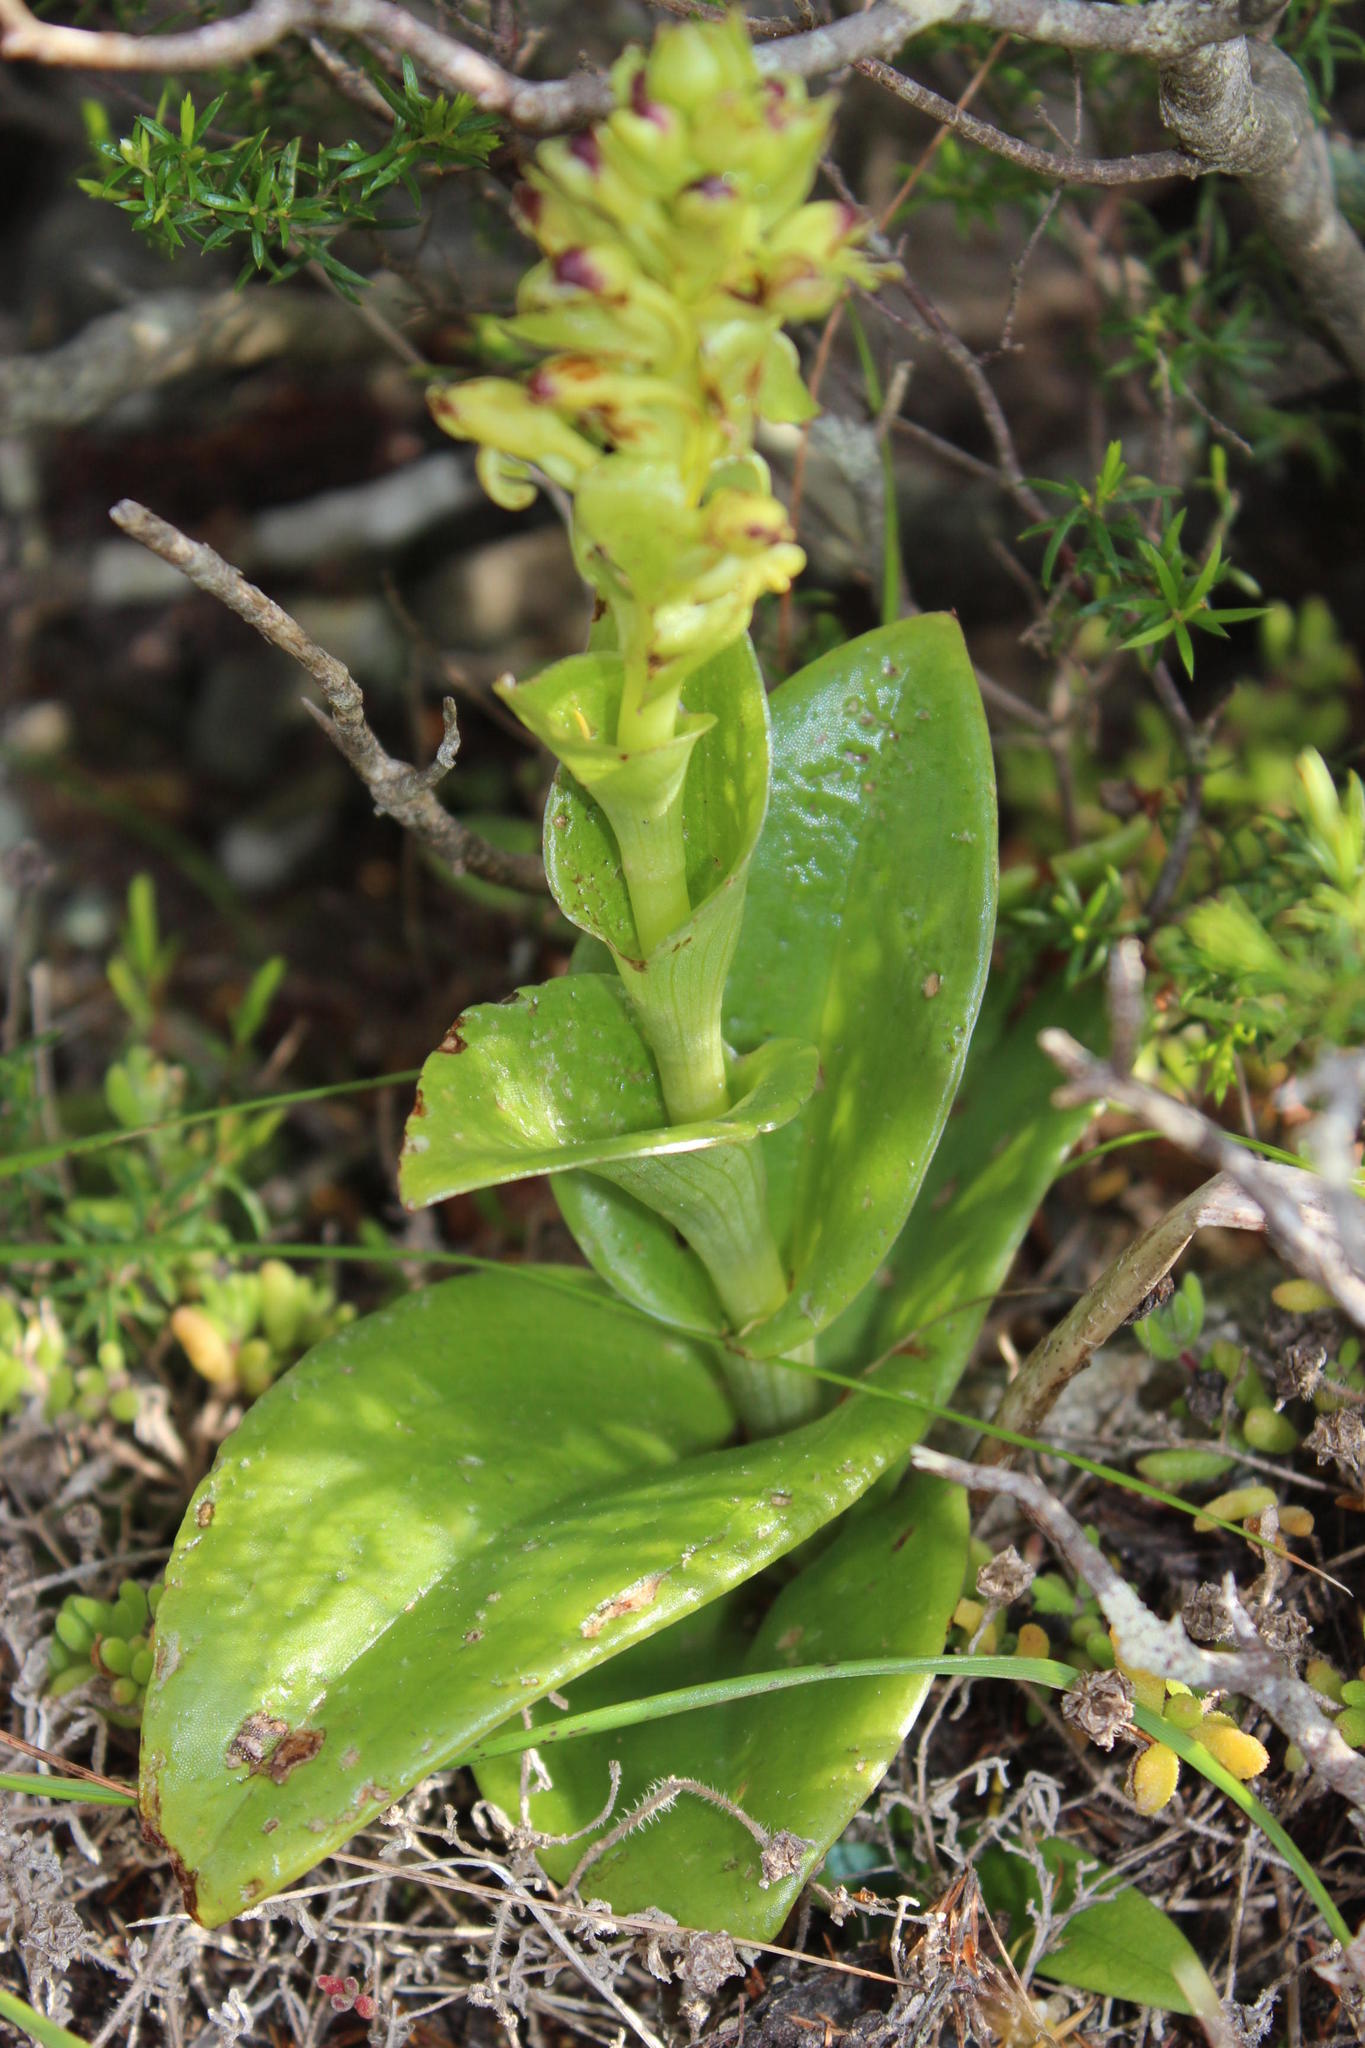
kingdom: Plantae
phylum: Tracheophyta
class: Liliopsida
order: Asparagales
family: Orchidaceae
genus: Satyrium
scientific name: Satyrium odorum
